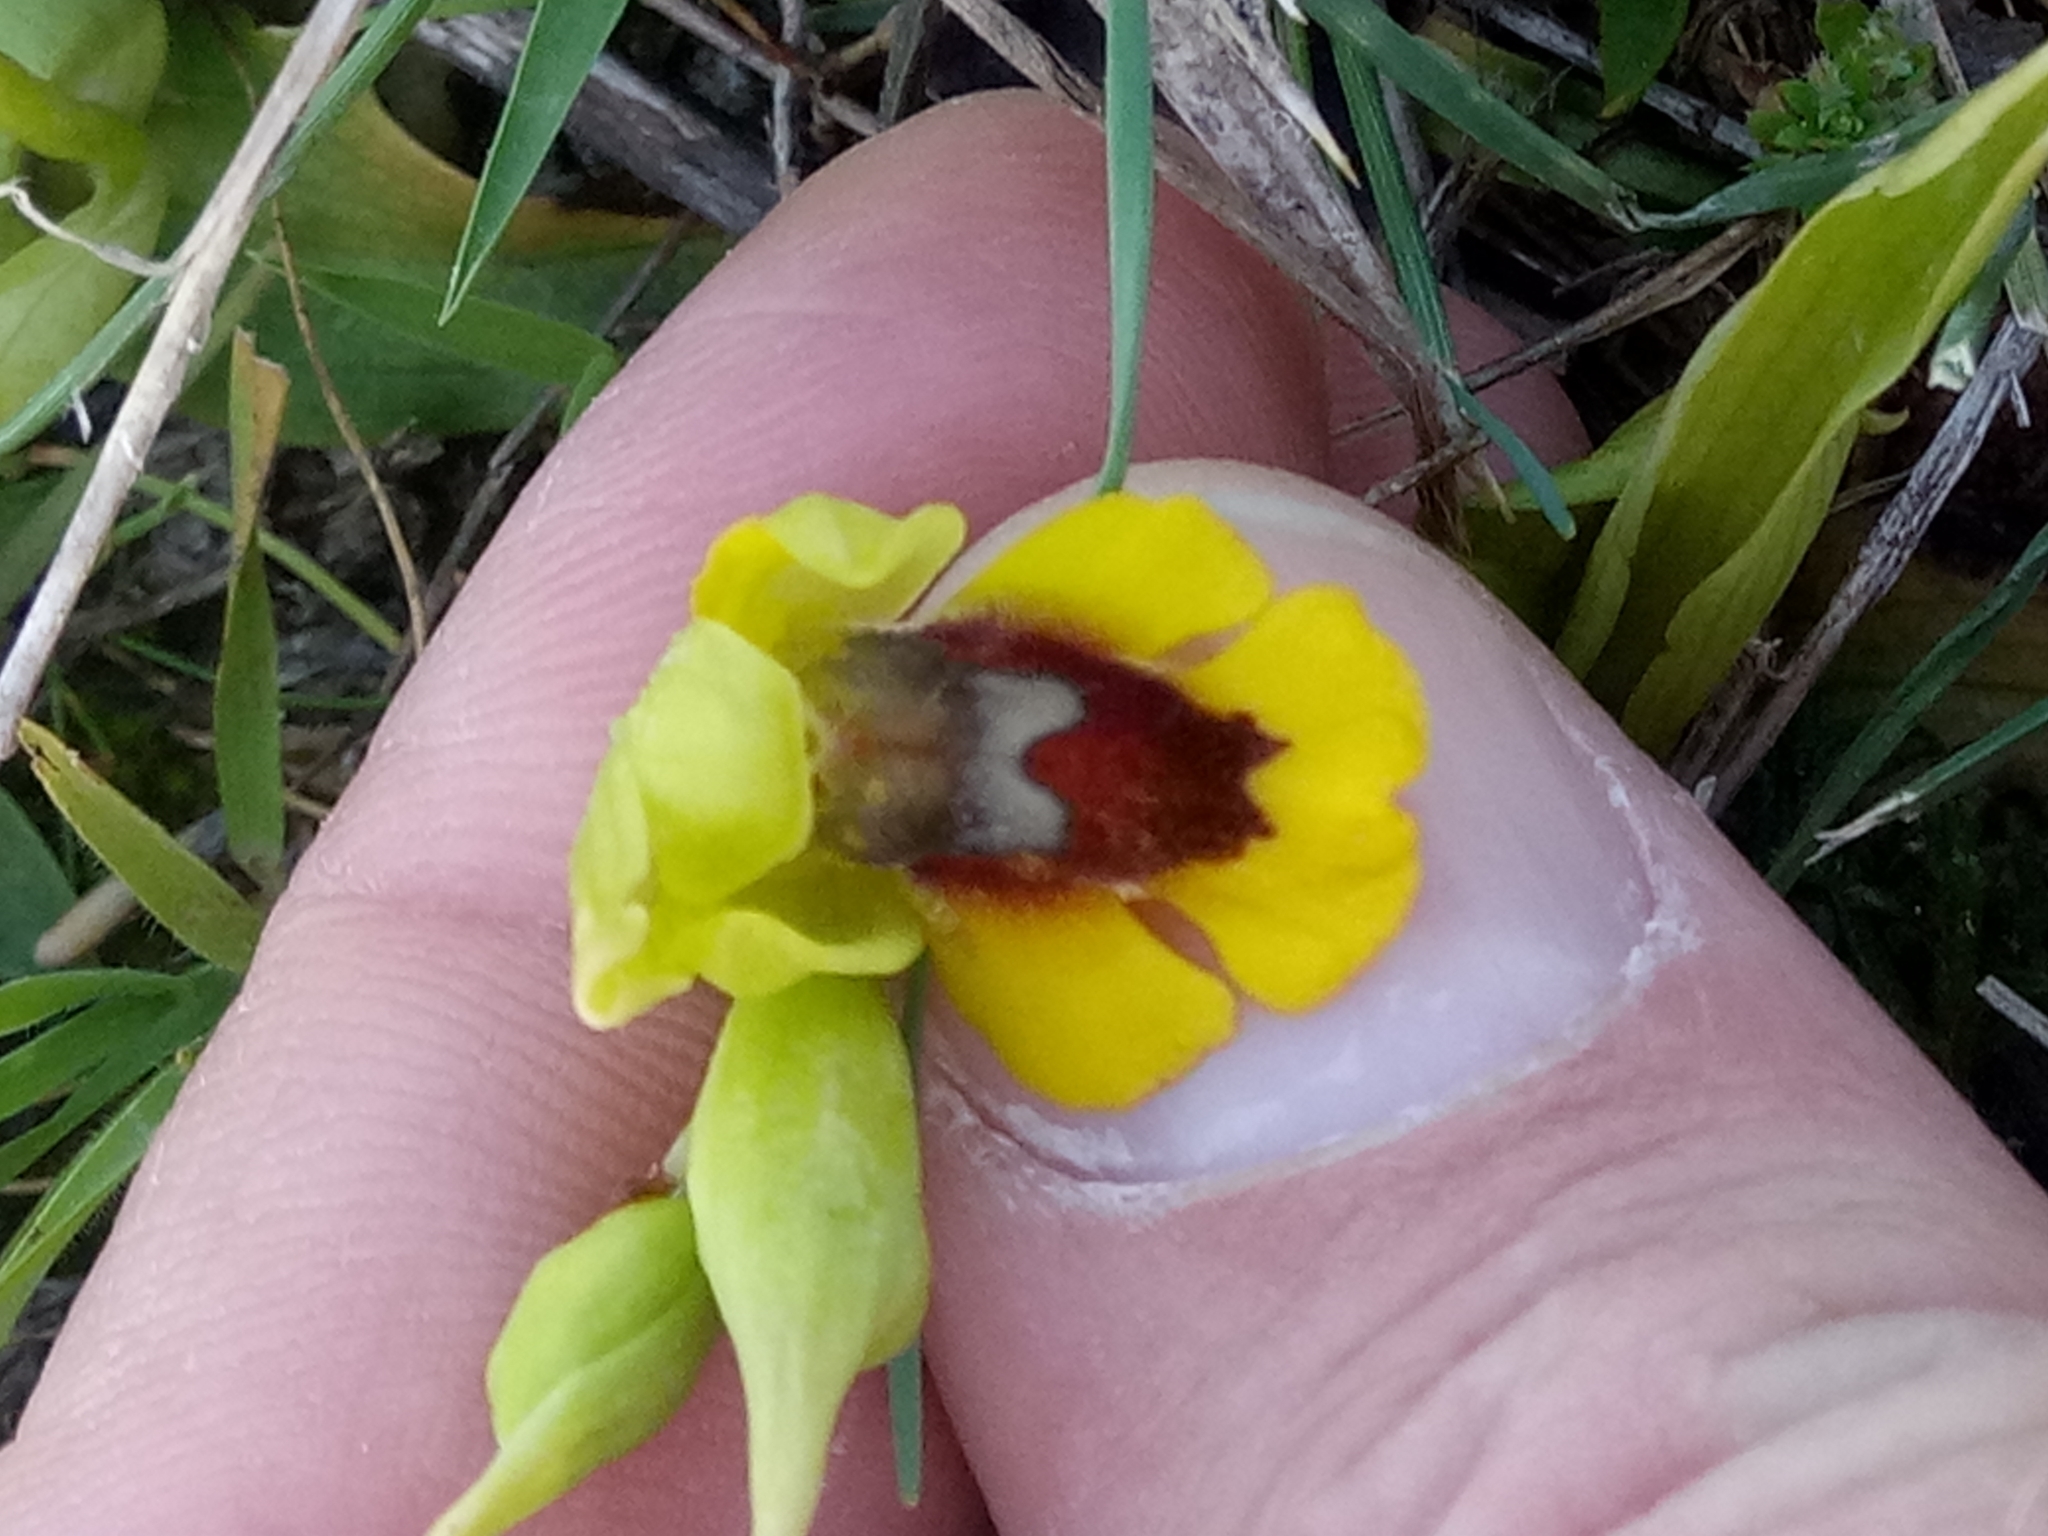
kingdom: Plantae
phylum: Tracheophyta
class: Liliopsida
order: Asparagales
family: Orchidaceae
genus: Ophrys
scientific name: Ophrys lutea
